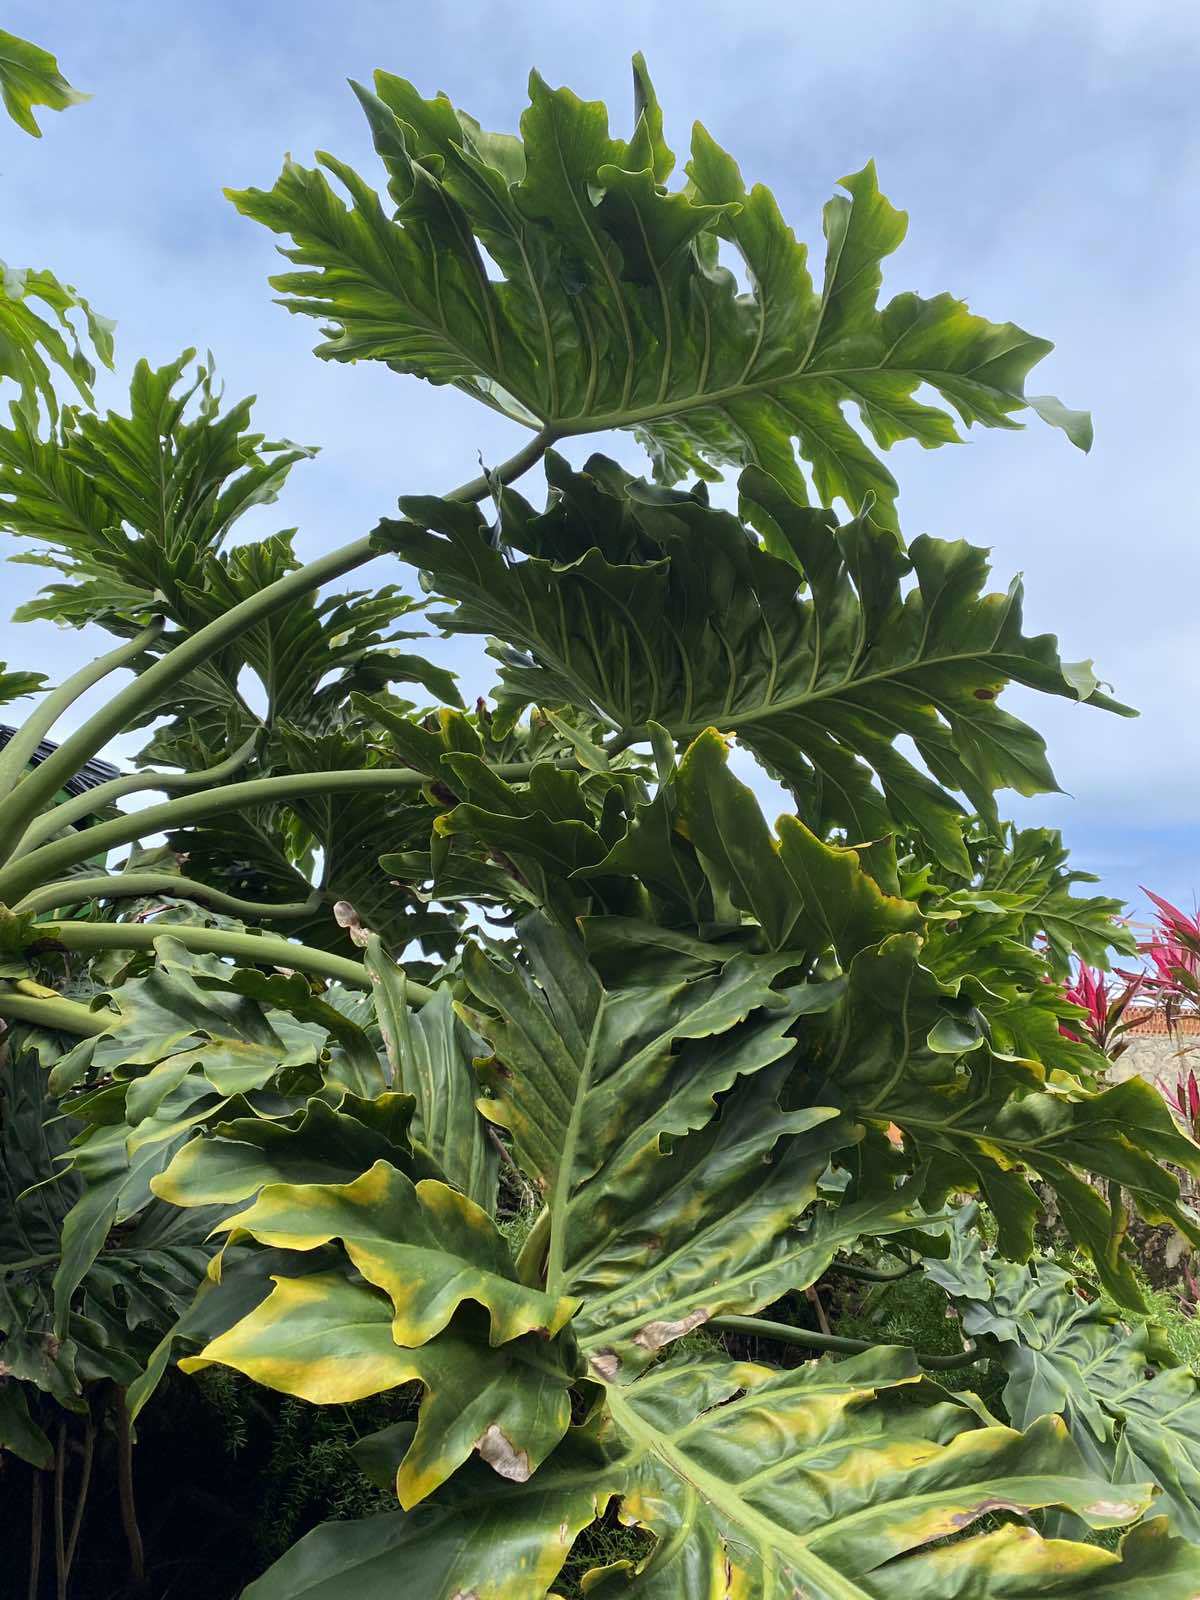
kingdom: Plantae
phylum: Tracheophyta
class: Liliopsida
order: Alismatales
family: Araceae
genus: Thaumatophyllum
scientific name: Thaumatophyllum bipinnatifidum
